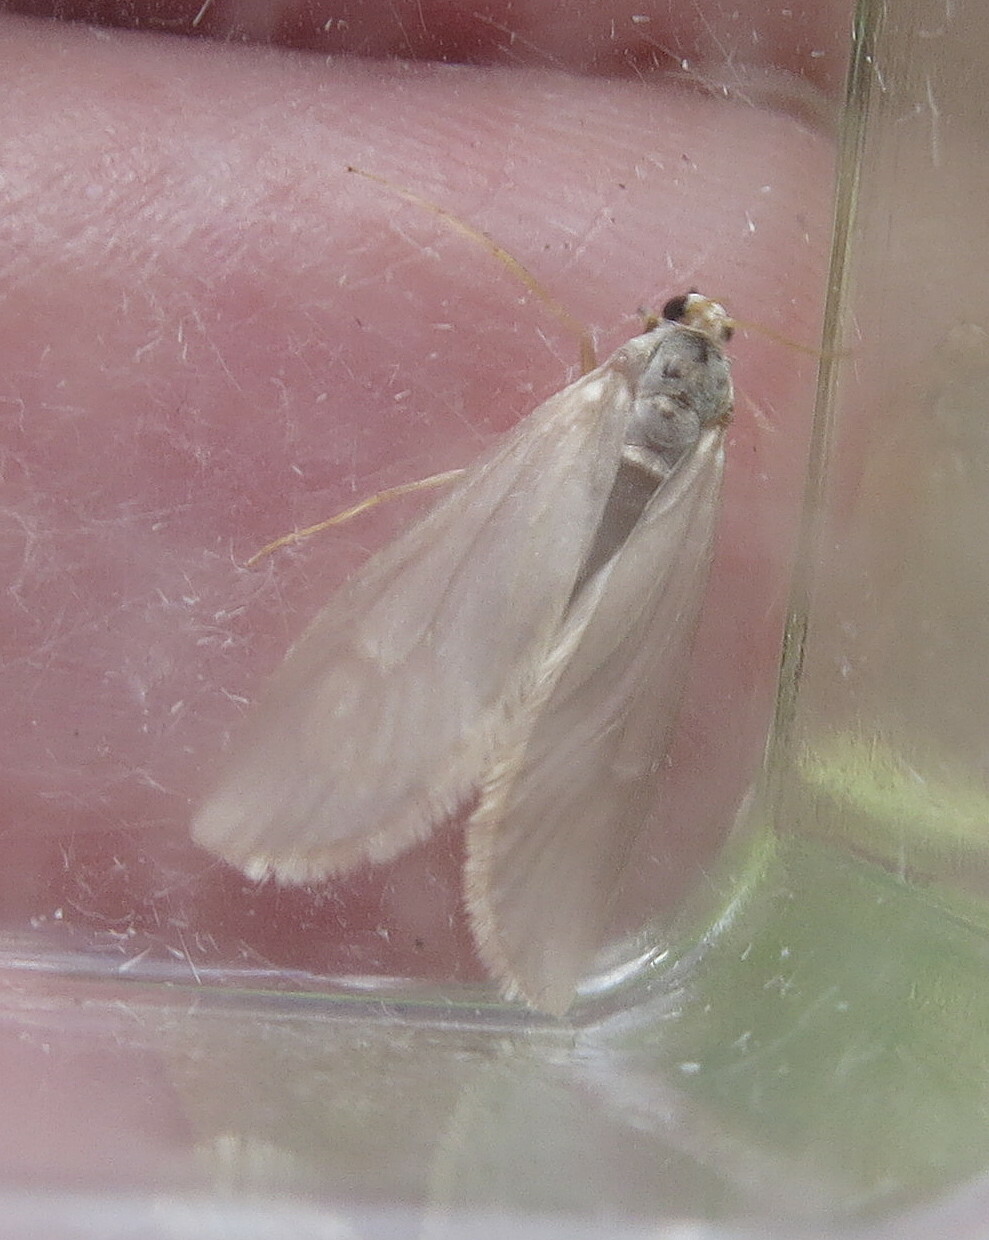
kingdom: Animalia
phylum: Arthropoda
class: Insecta
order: Lepidoptera
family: Crambidae
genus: Acentria
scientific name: Acentria ephemerella
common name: European water moth
